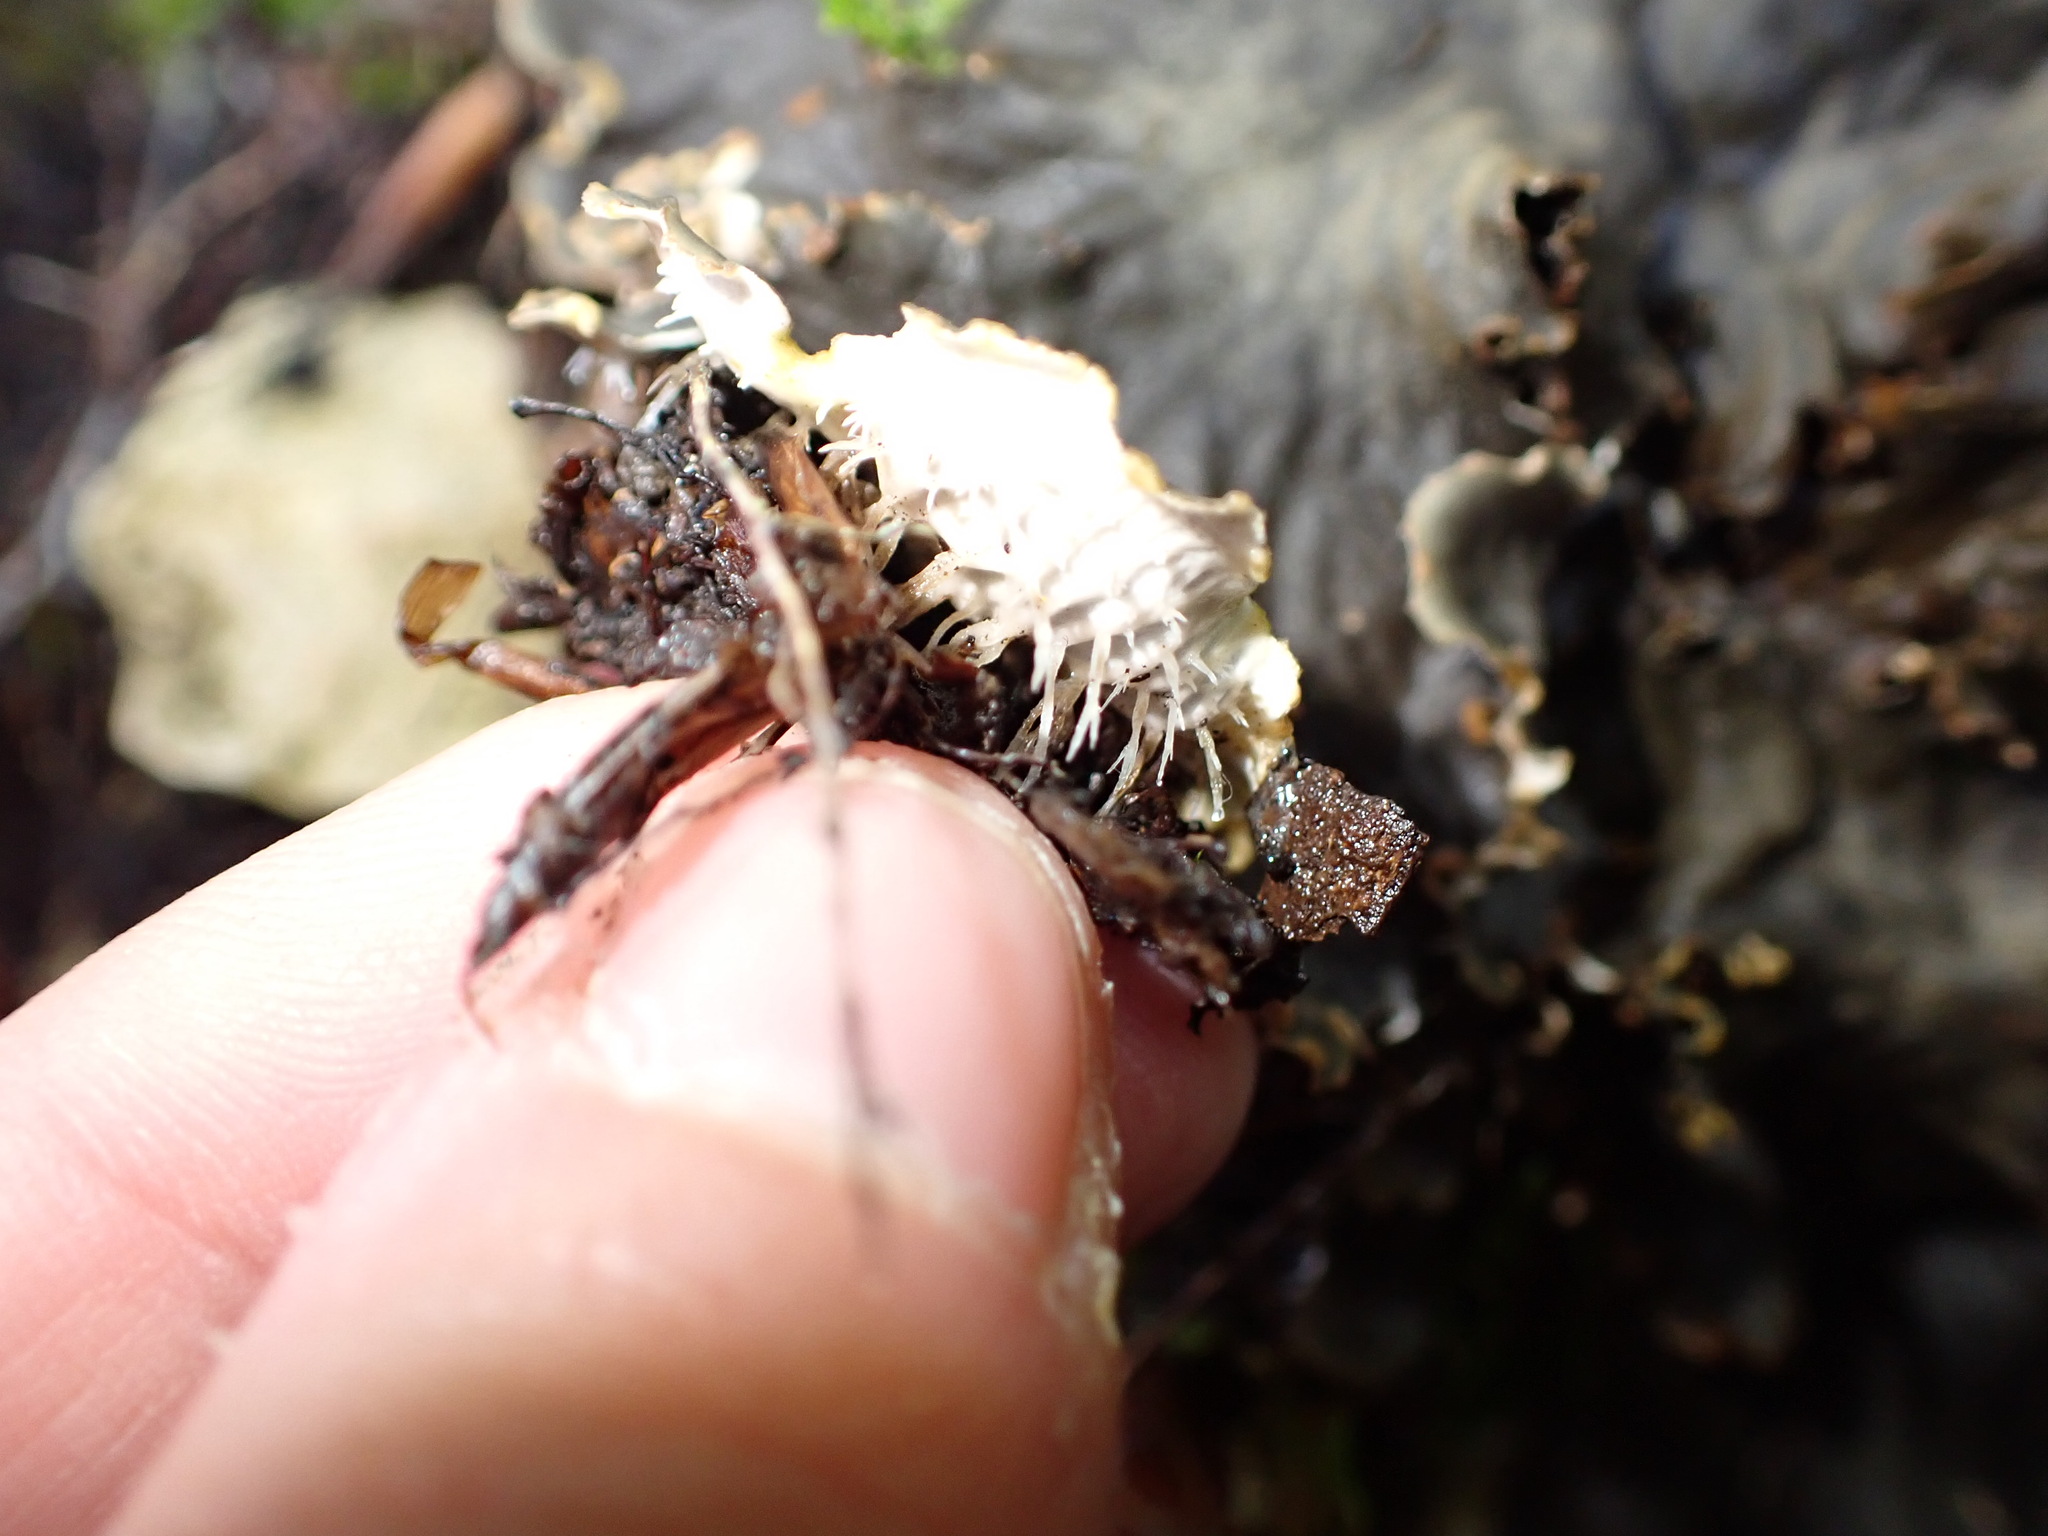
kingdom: Fungi
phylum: Ascomycota
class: Lecanoromycetes
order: Peltigerales
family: Peltigeraceae
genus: Peltigera
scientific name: Peltigera praetextata
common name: Scaly dog-lichen
